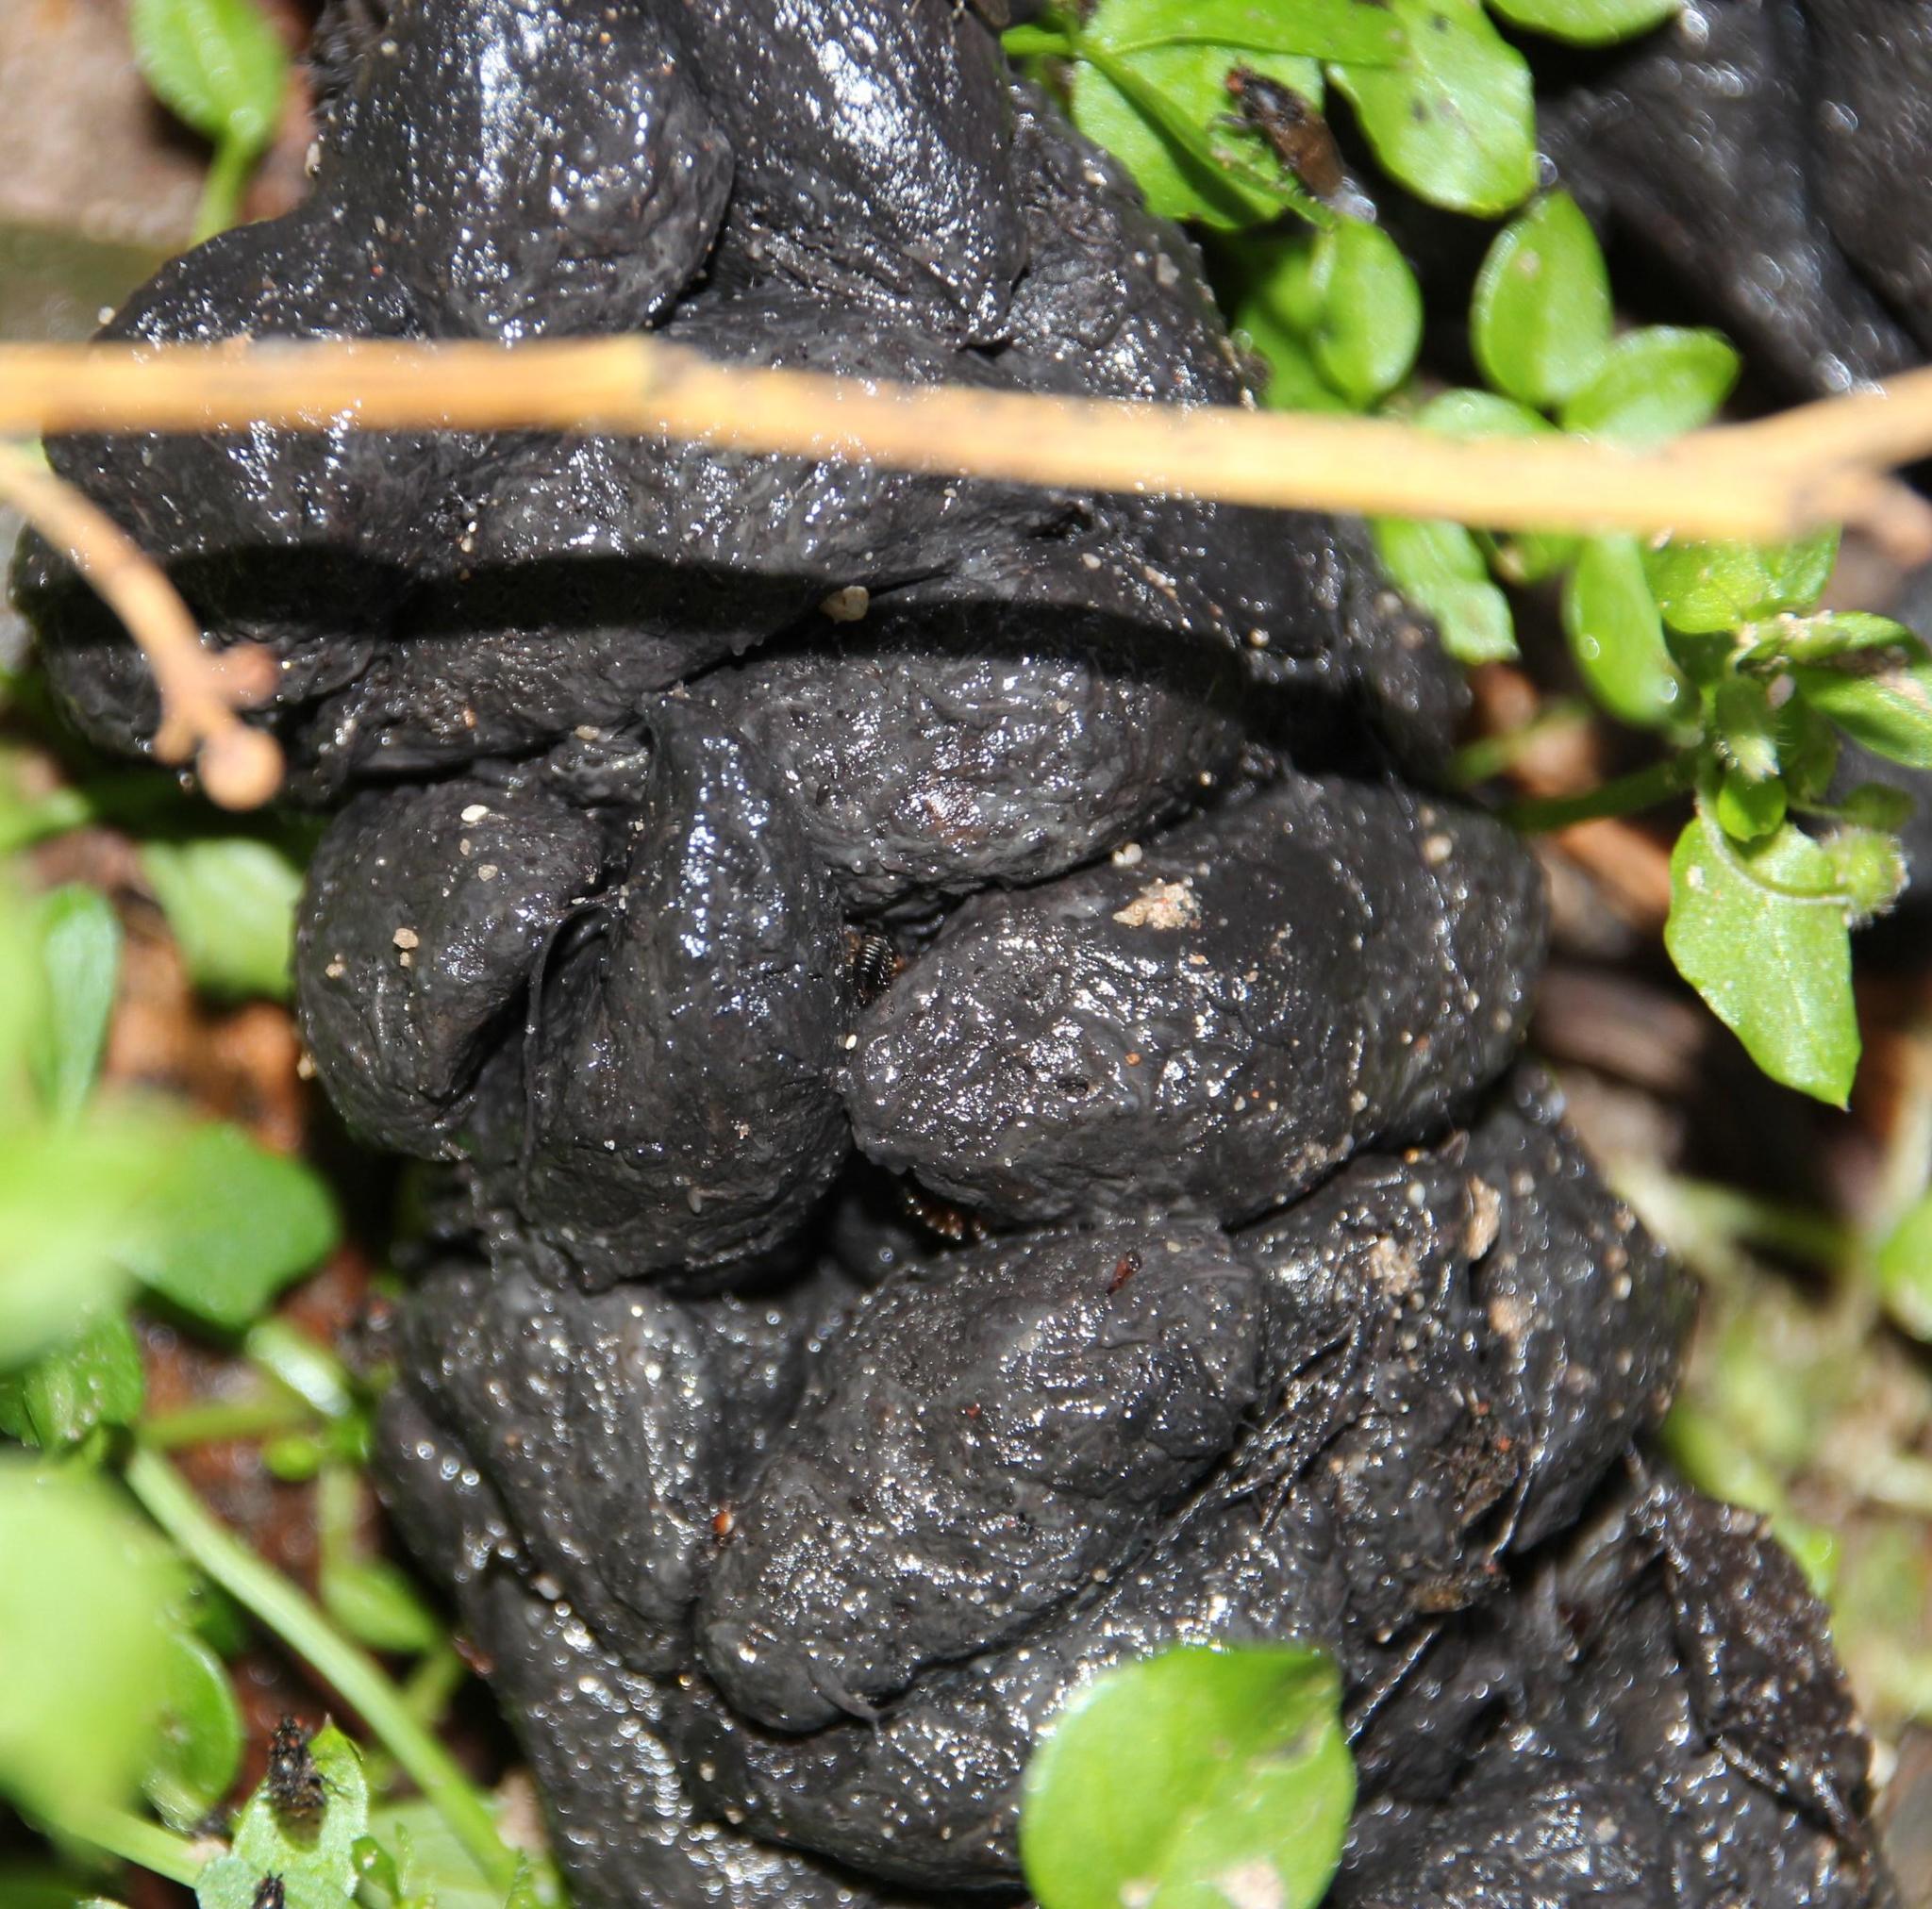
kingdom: Animalia
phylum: Chordata
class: Mammalia
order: Rodentia
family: Hystricidae
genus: Hystrix
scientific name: Hystrix africaeaustralis
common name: Cape porcupine
